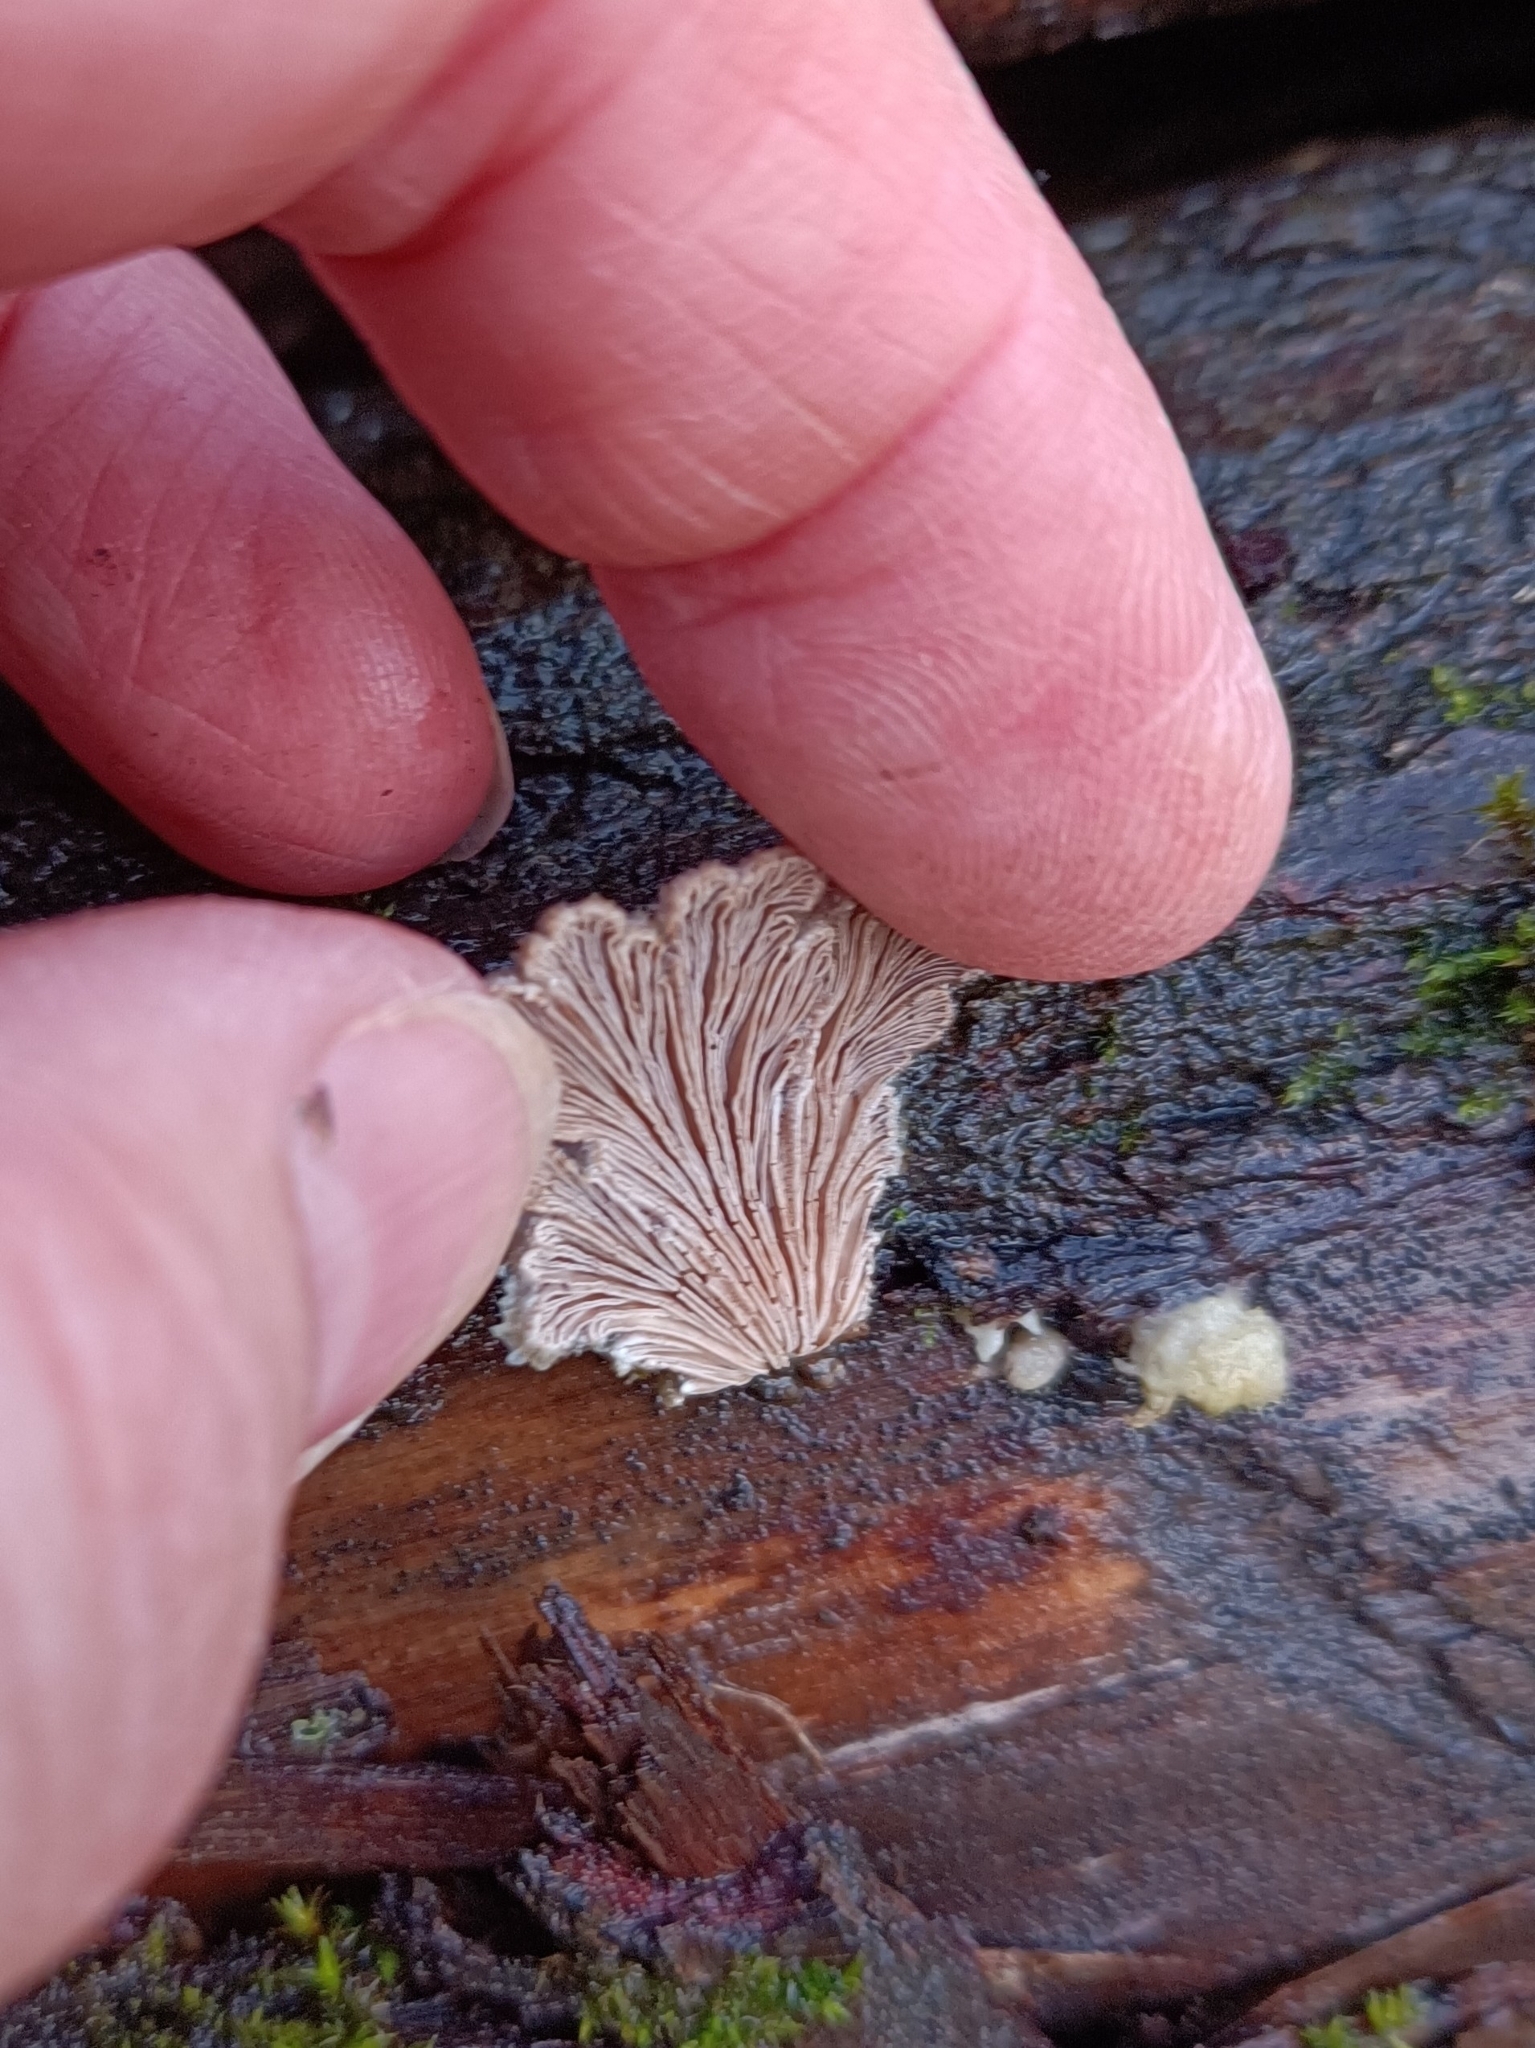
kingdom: Fungi
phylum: Basidiomycota
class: Agaricomycetes
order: Agaricales
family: Schizophyllaceae
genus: Schizophyllum
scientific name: Schizophyllum commune
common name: Common porecrust
